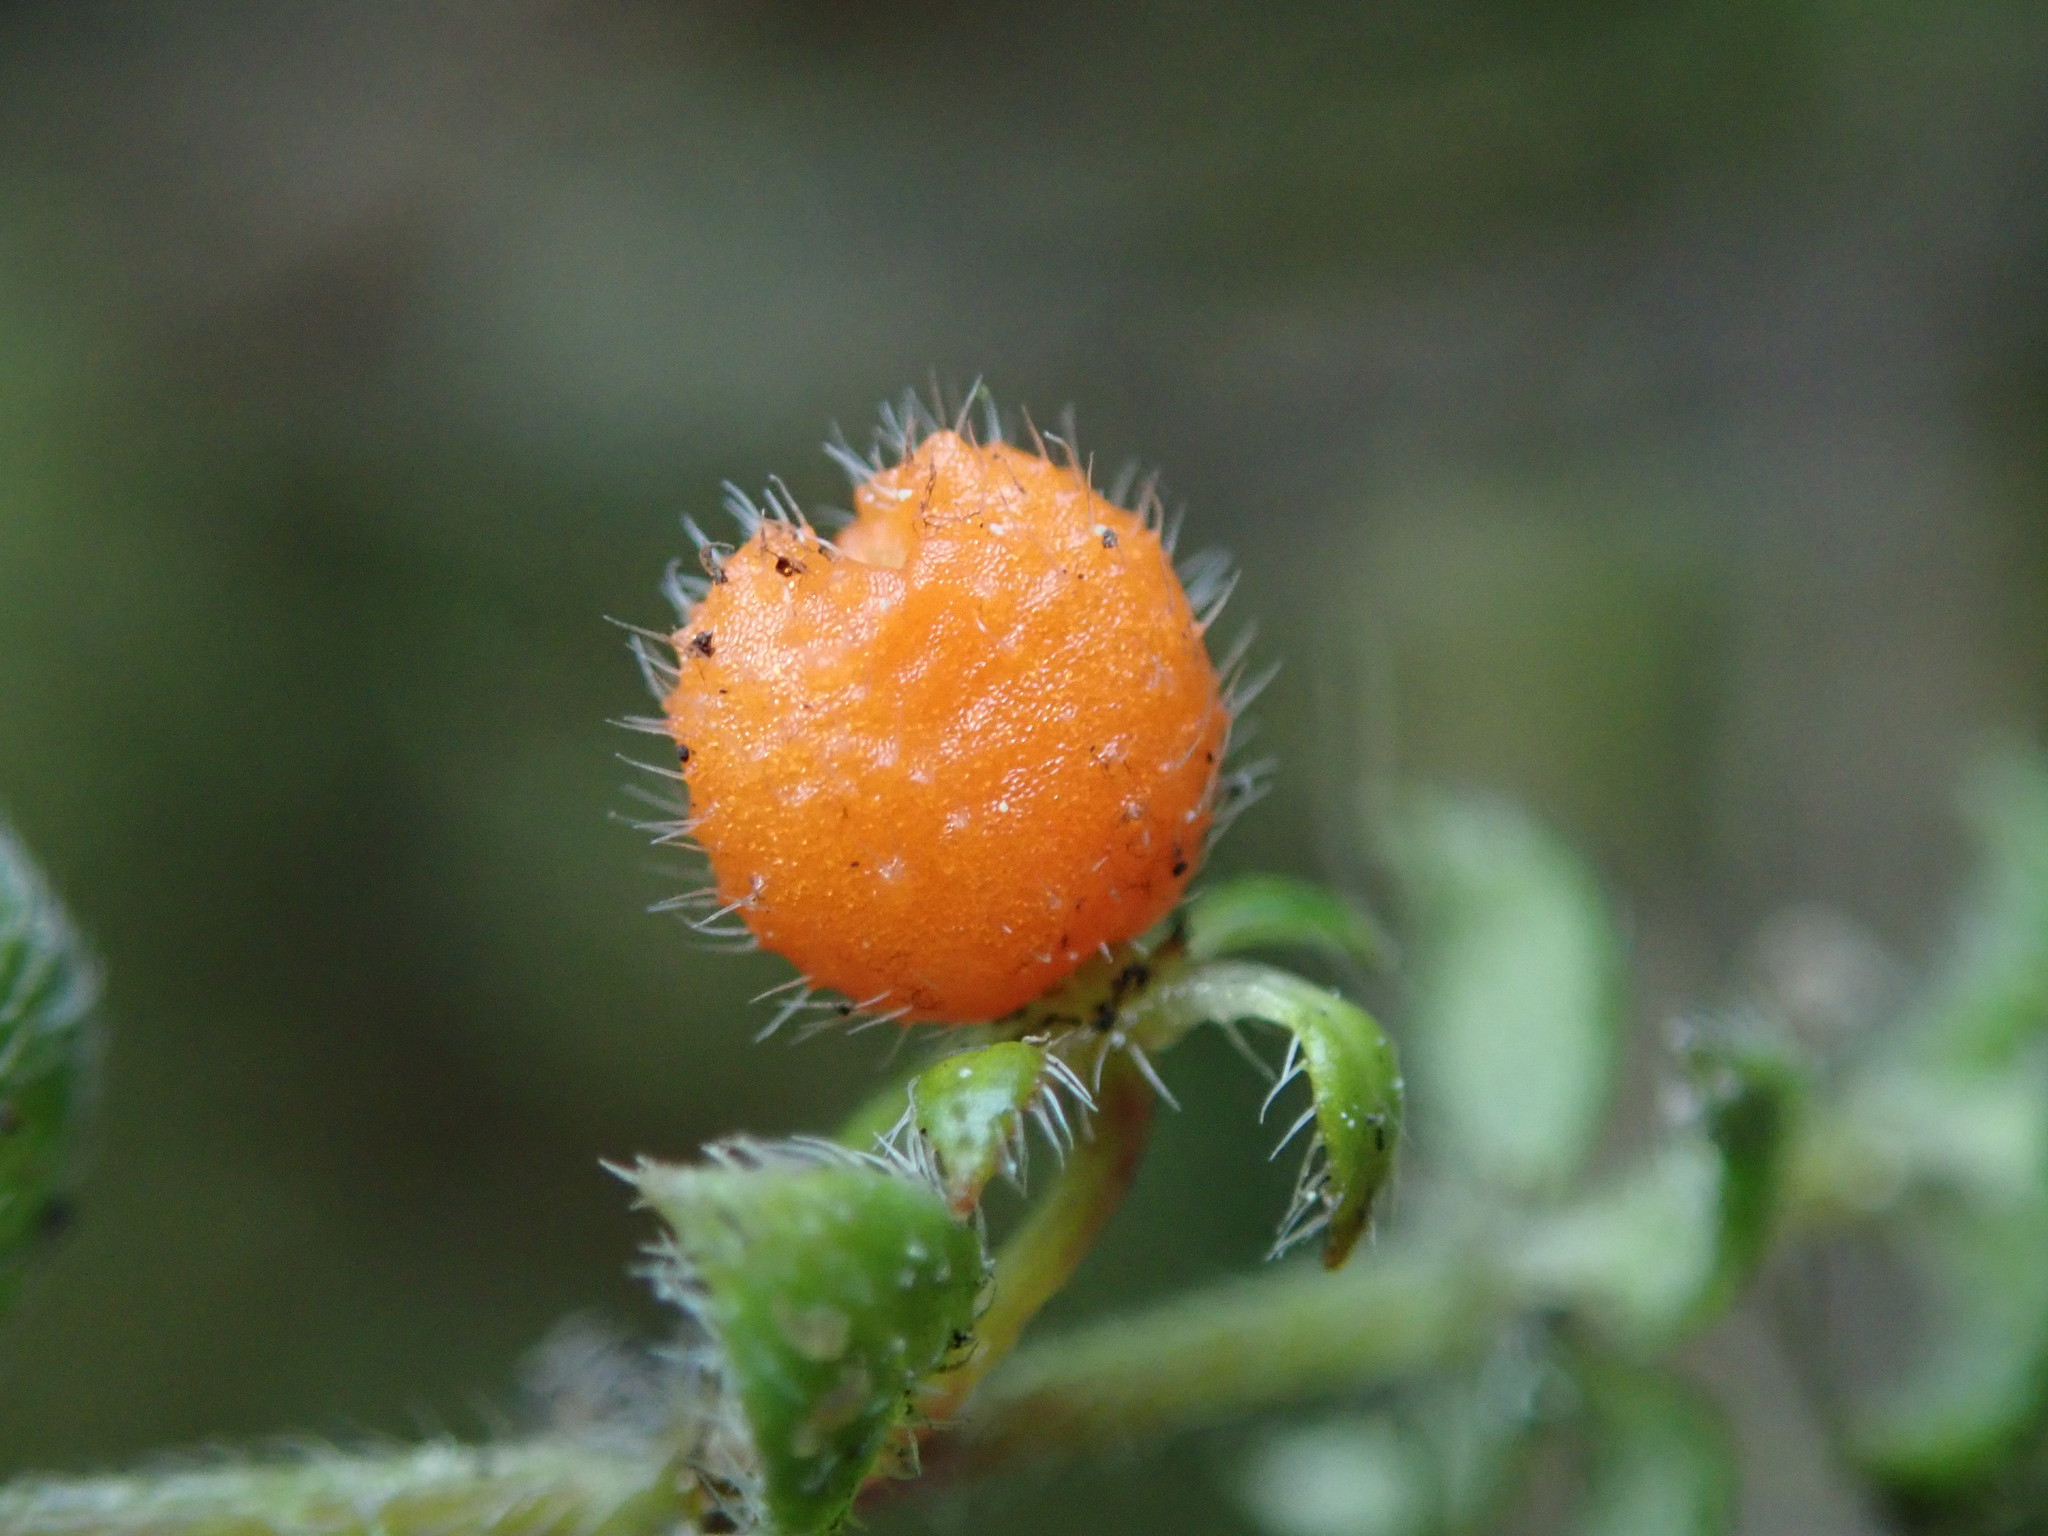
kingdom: Plantae
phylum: Tracheophyta
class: Magnoliopsida
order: Gentianales
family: Rubiaceae
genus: Galium
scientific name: Galium hypocarpium
